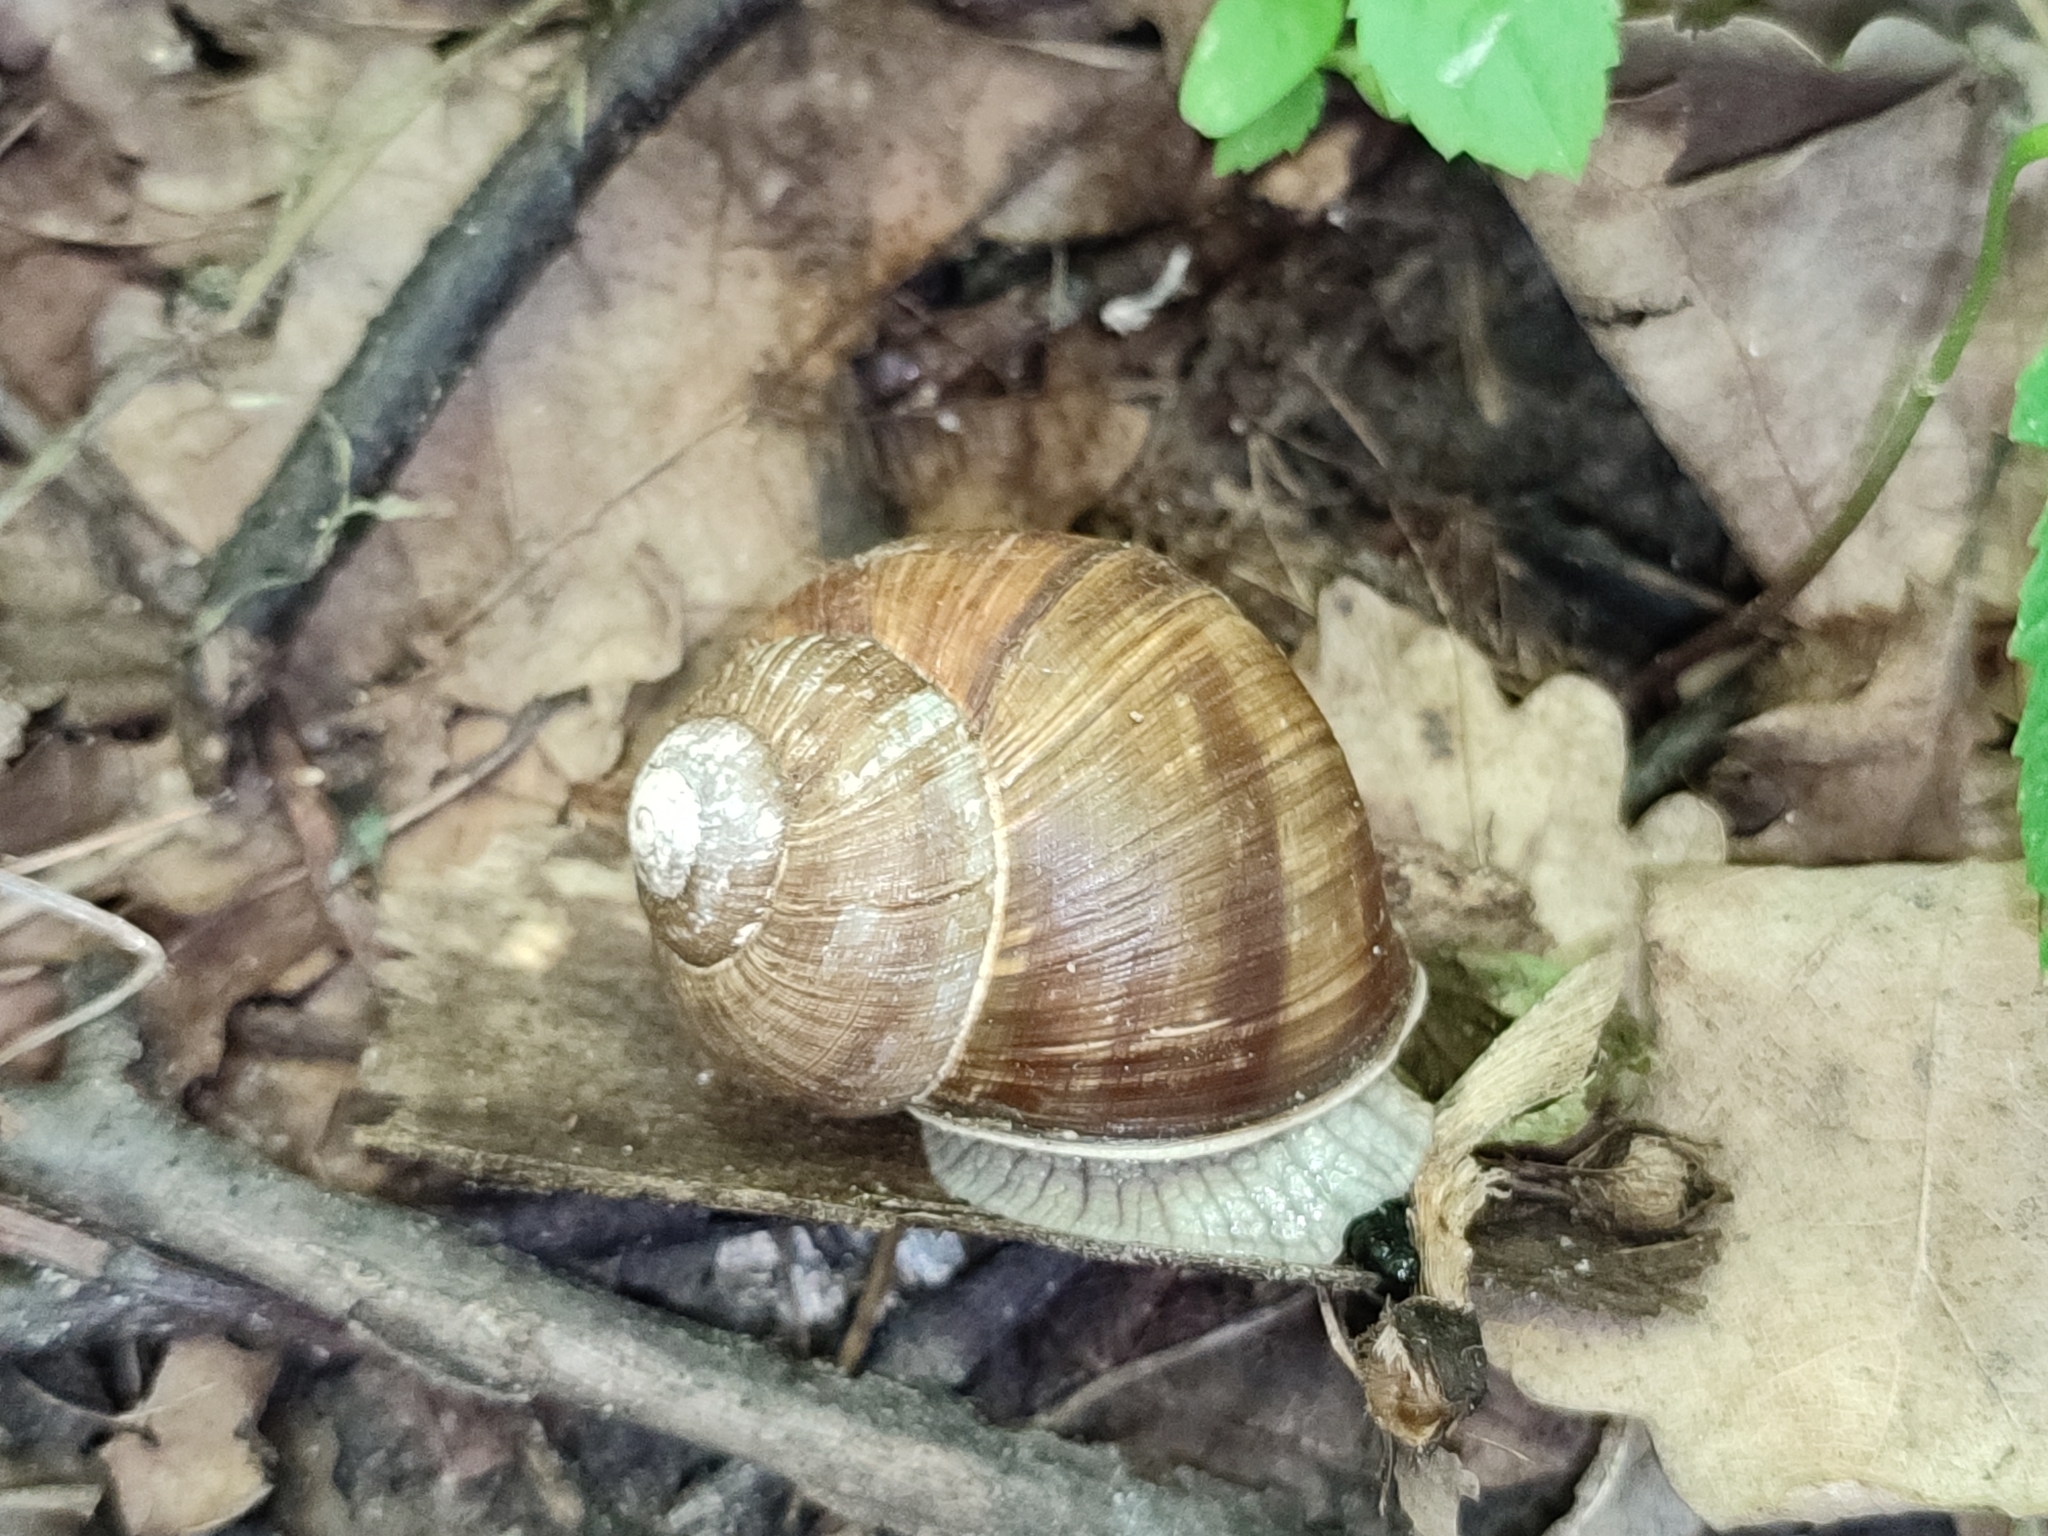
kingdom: Animalia
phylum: Mollusca
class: Gastropoda
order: Stylommatophora
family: Helicidae
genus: Helix
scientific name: Helix pomatia
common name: Roman snail
